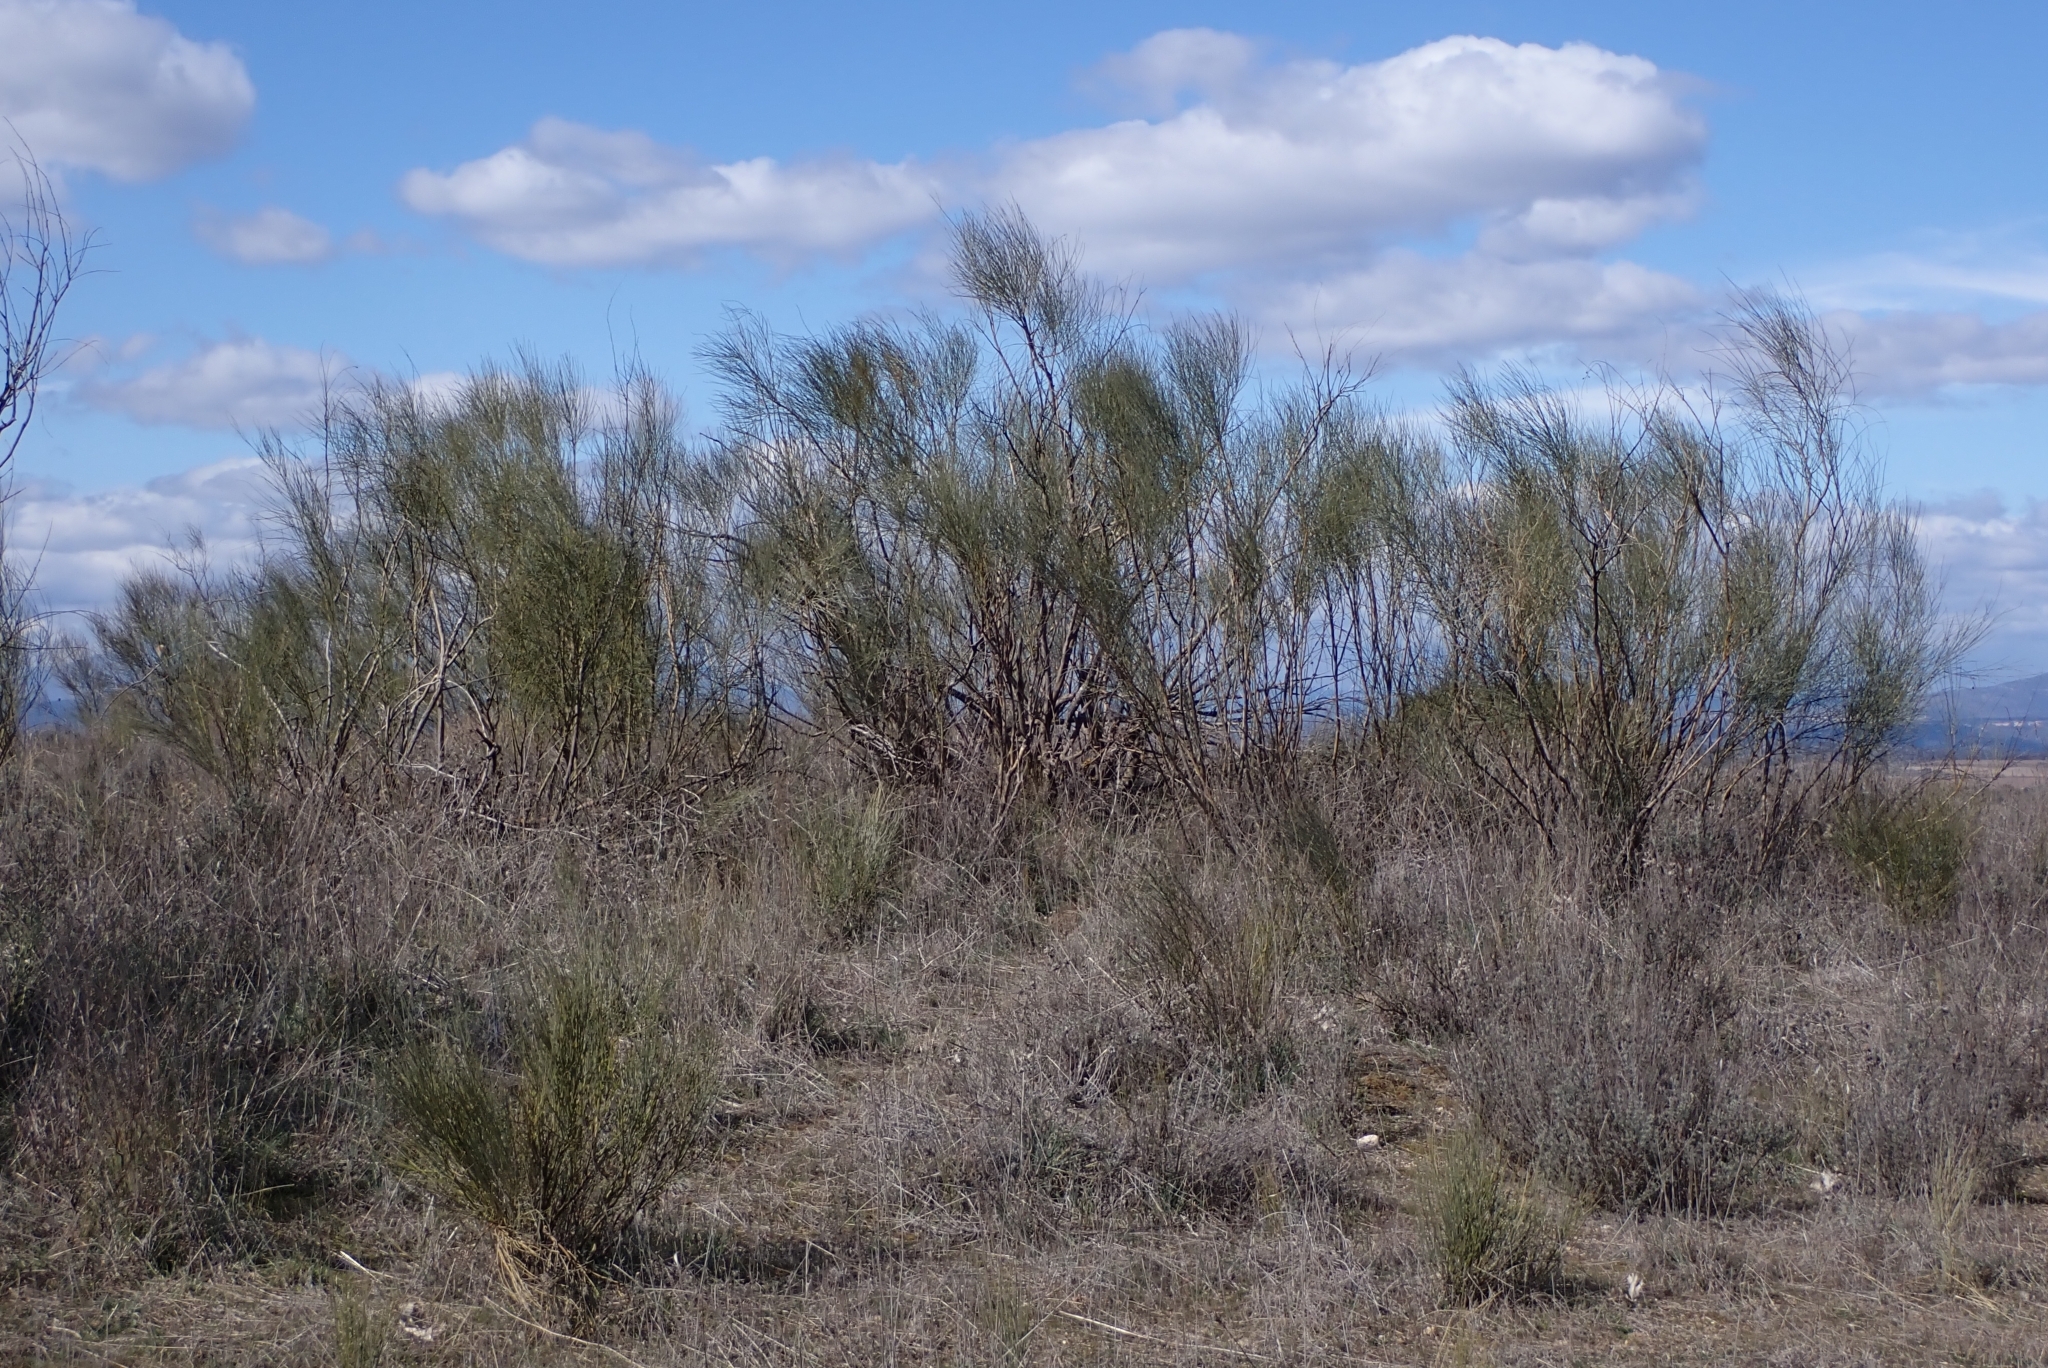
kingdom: Plantae
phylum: Tracheophyta
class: Magnoliopsida
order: Fabales
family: Fabaceae
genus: Retama
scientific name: Retama sphaerocarpa
